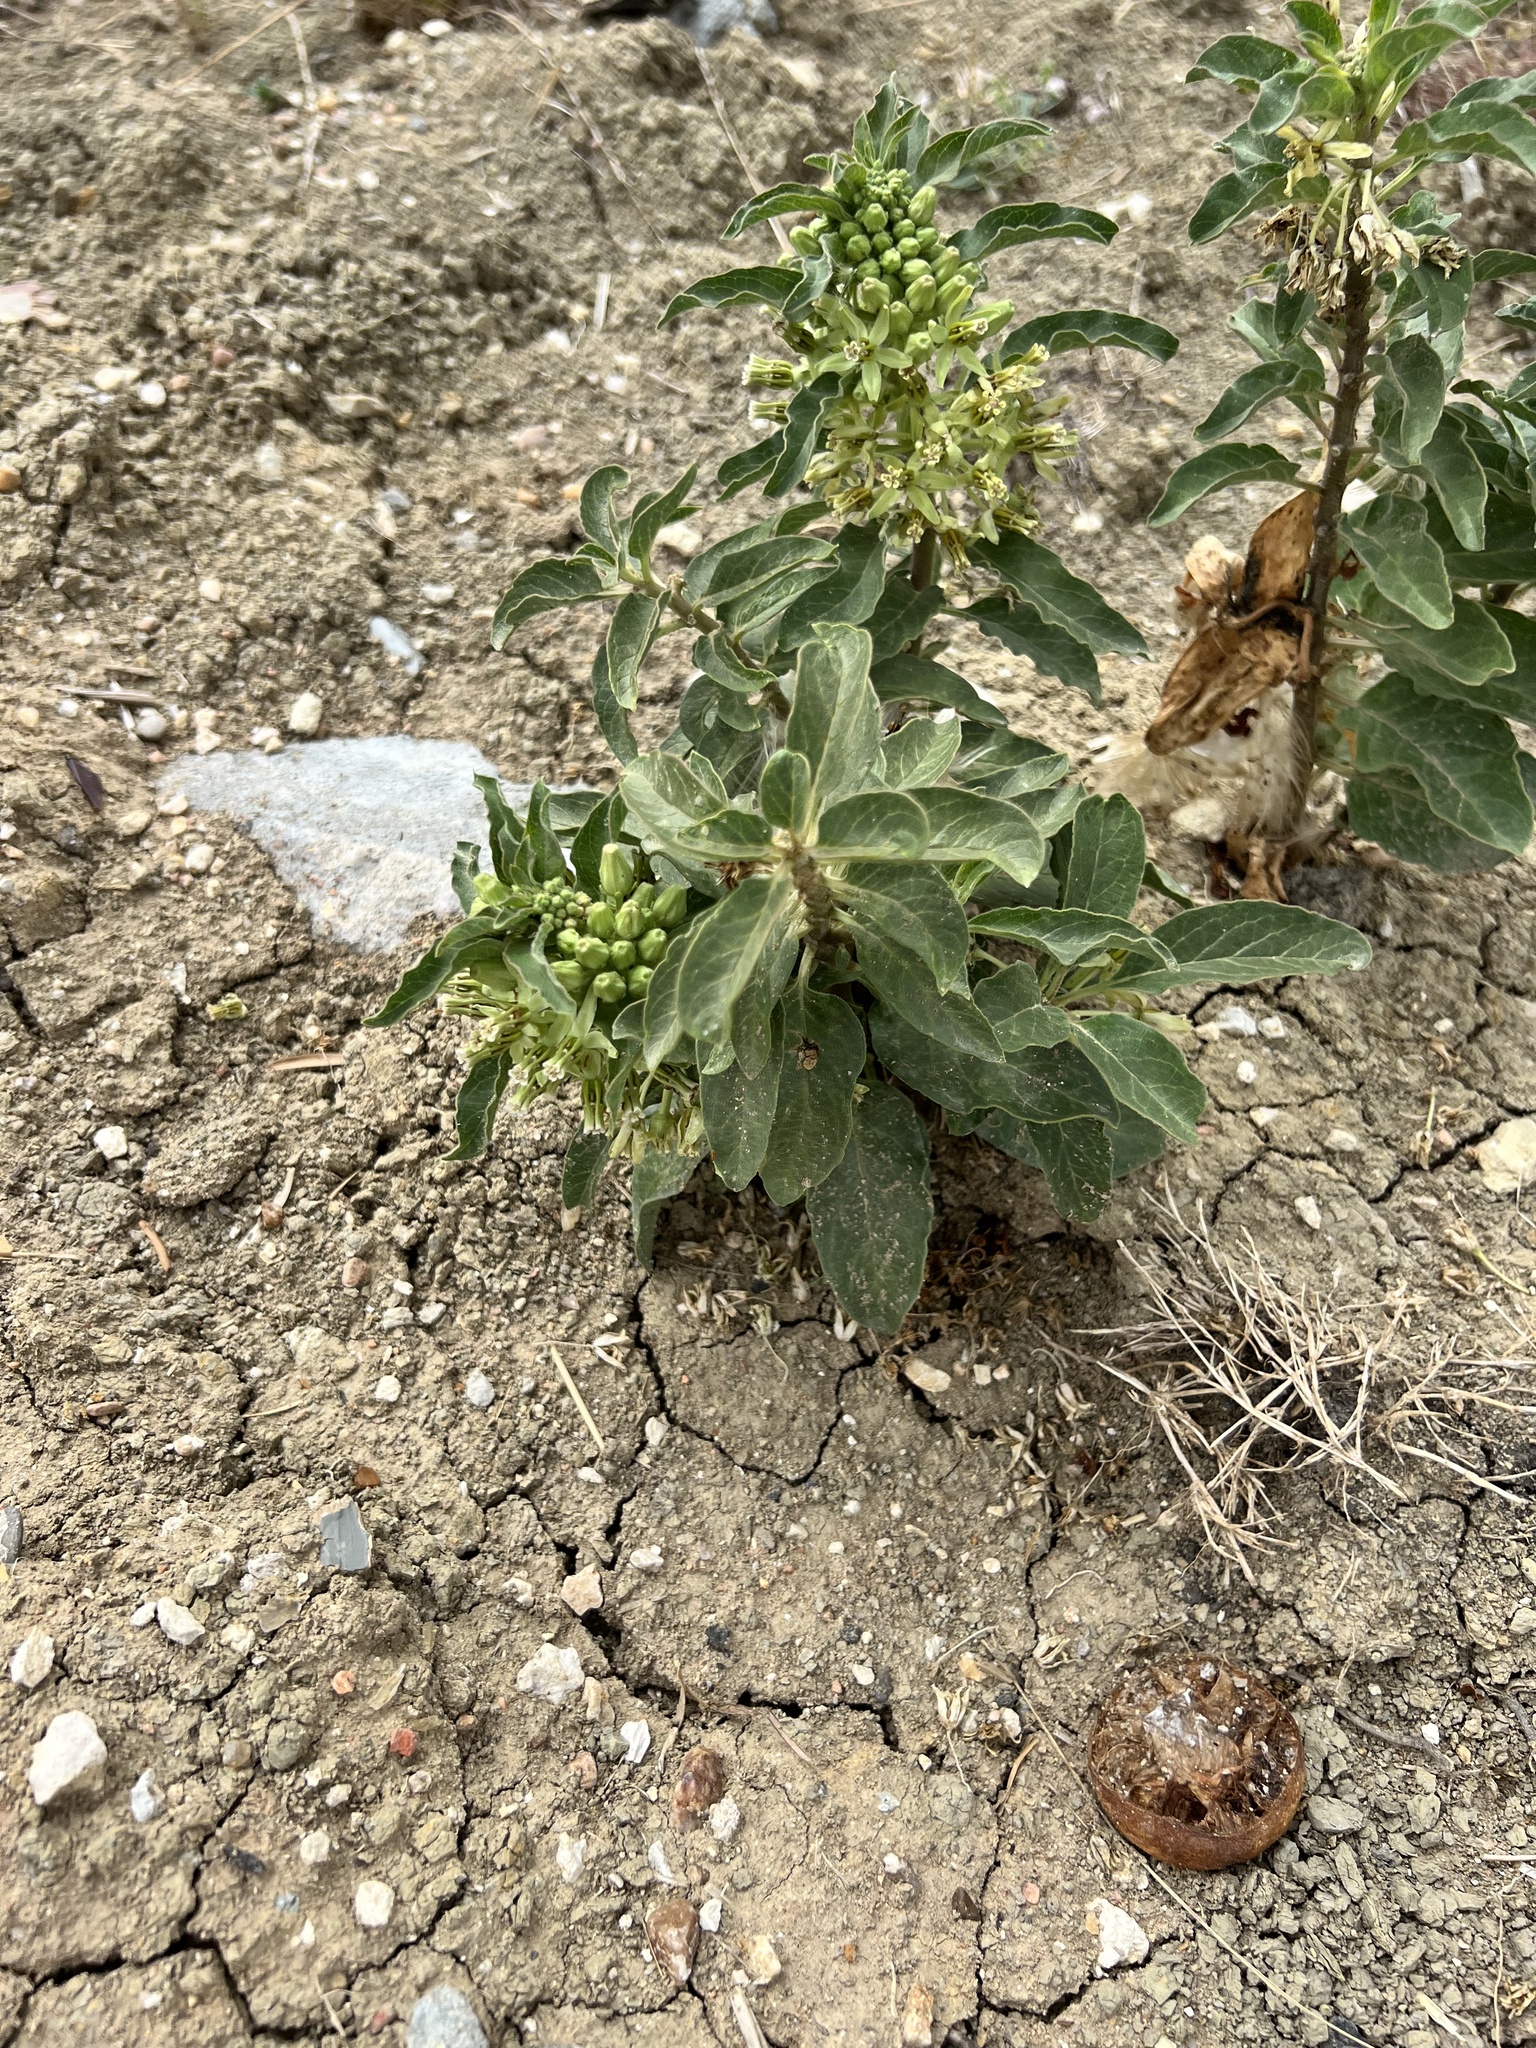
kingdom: Plantae
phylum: Tracheophyta
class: Magnoliopsida
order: Gentianales
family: Apocynaceae
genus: Asclepias
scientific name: Asclepias oenotheroides
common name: Zizotes milkweed
